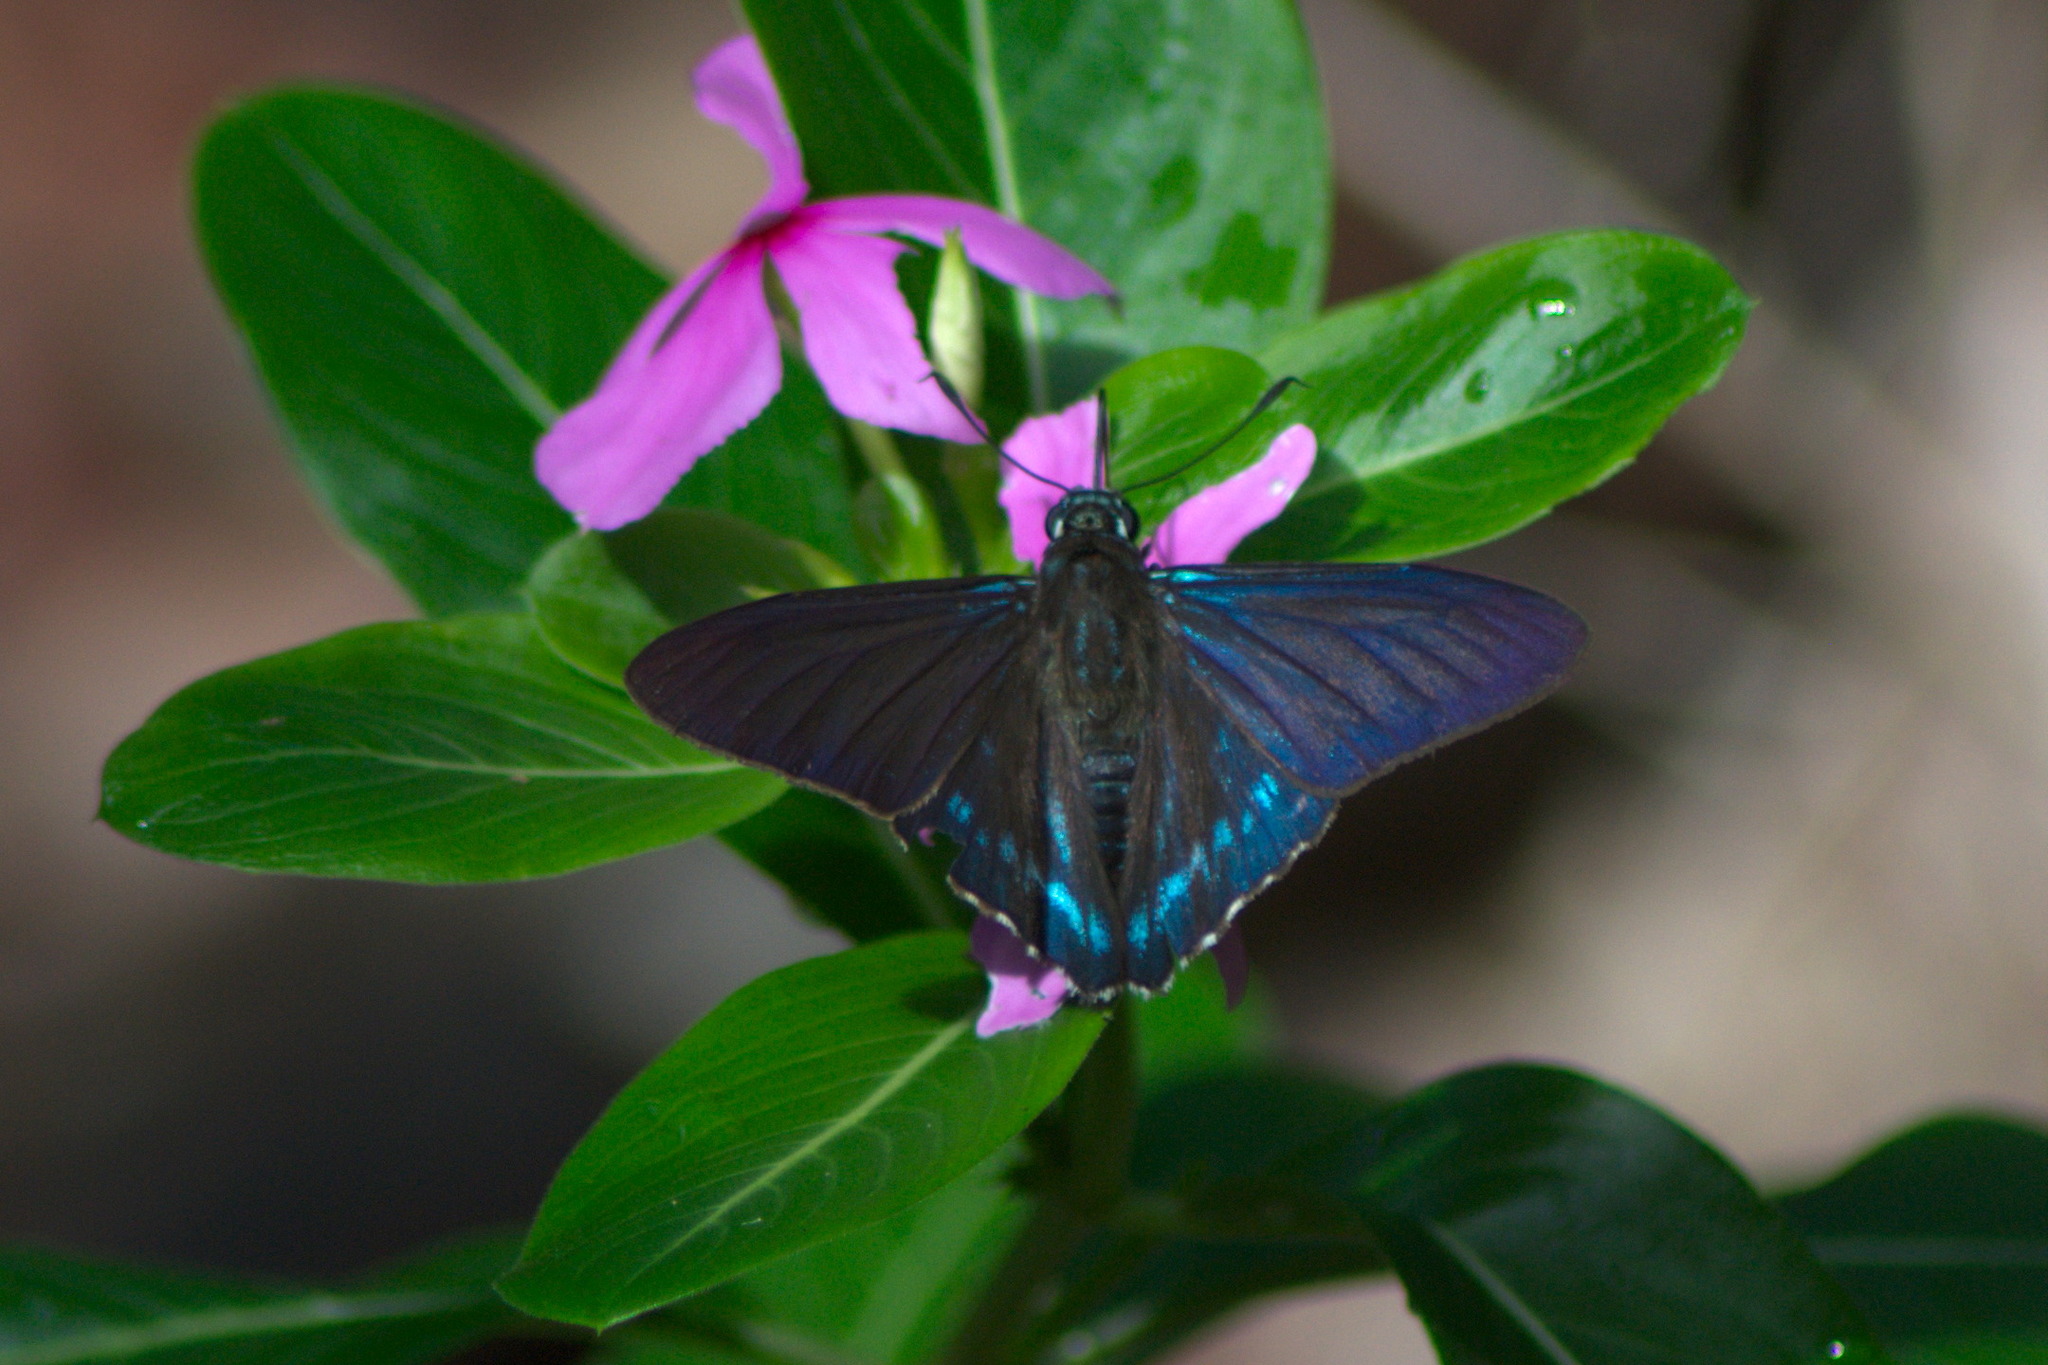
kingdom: Animalia
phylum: Arthropoda
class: Insecta
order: Lepidoptera
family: Hesperiidae
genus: Phocides
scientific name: Phocides pigmalion
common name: Mangrove skipper
